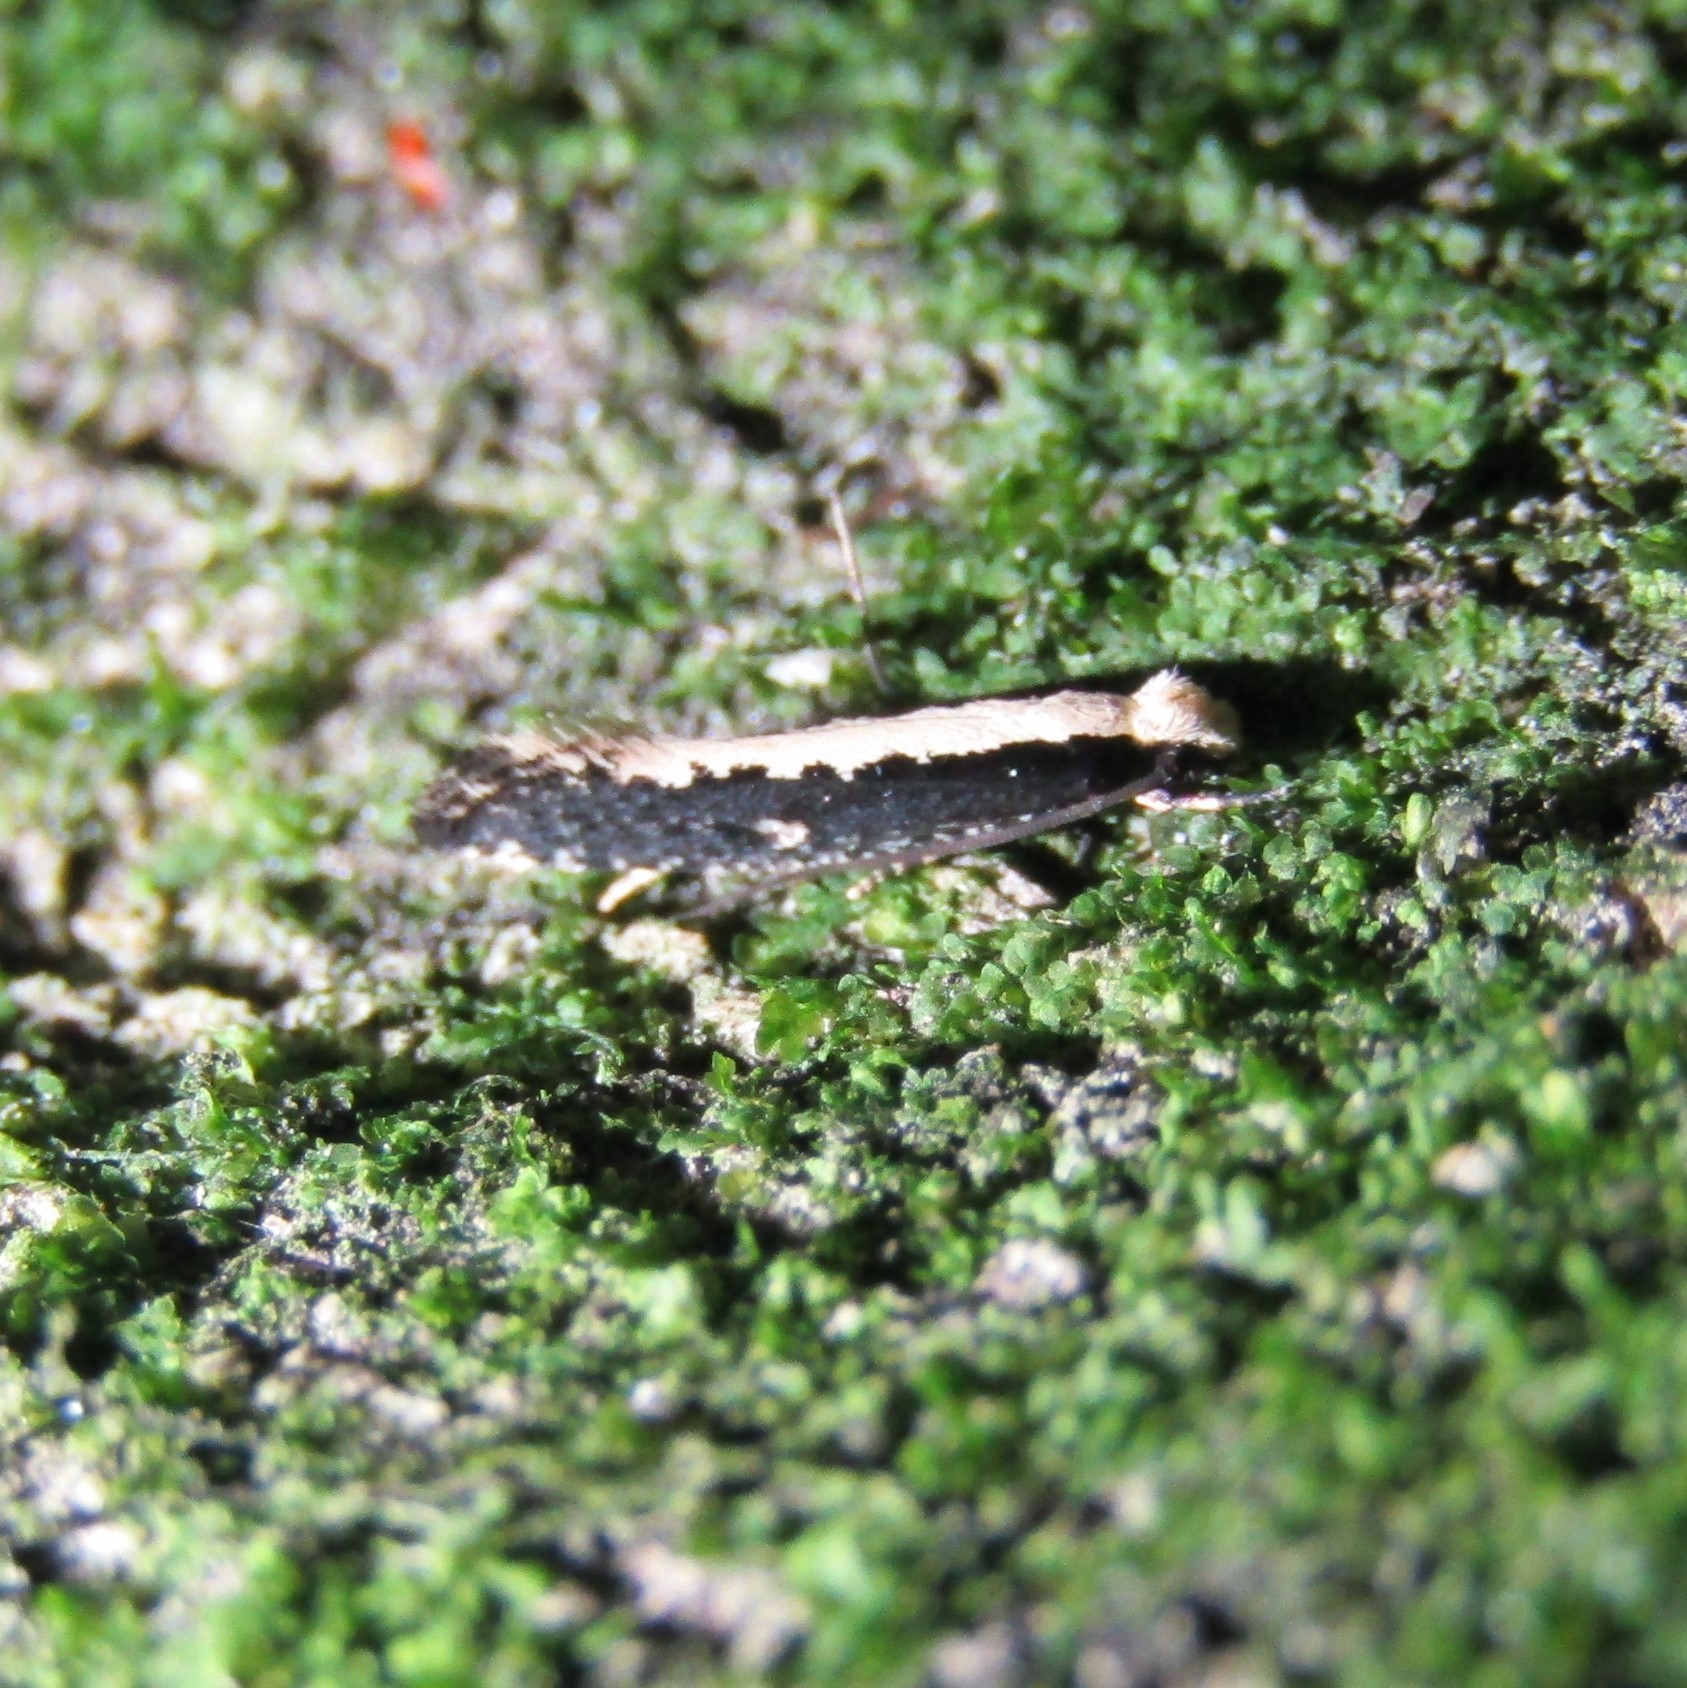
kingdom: Animalia
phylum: Arthropoda
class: Insecta
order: Lepidoptera
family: Tineidae
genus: Monopis
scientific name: Monopis ethelella
